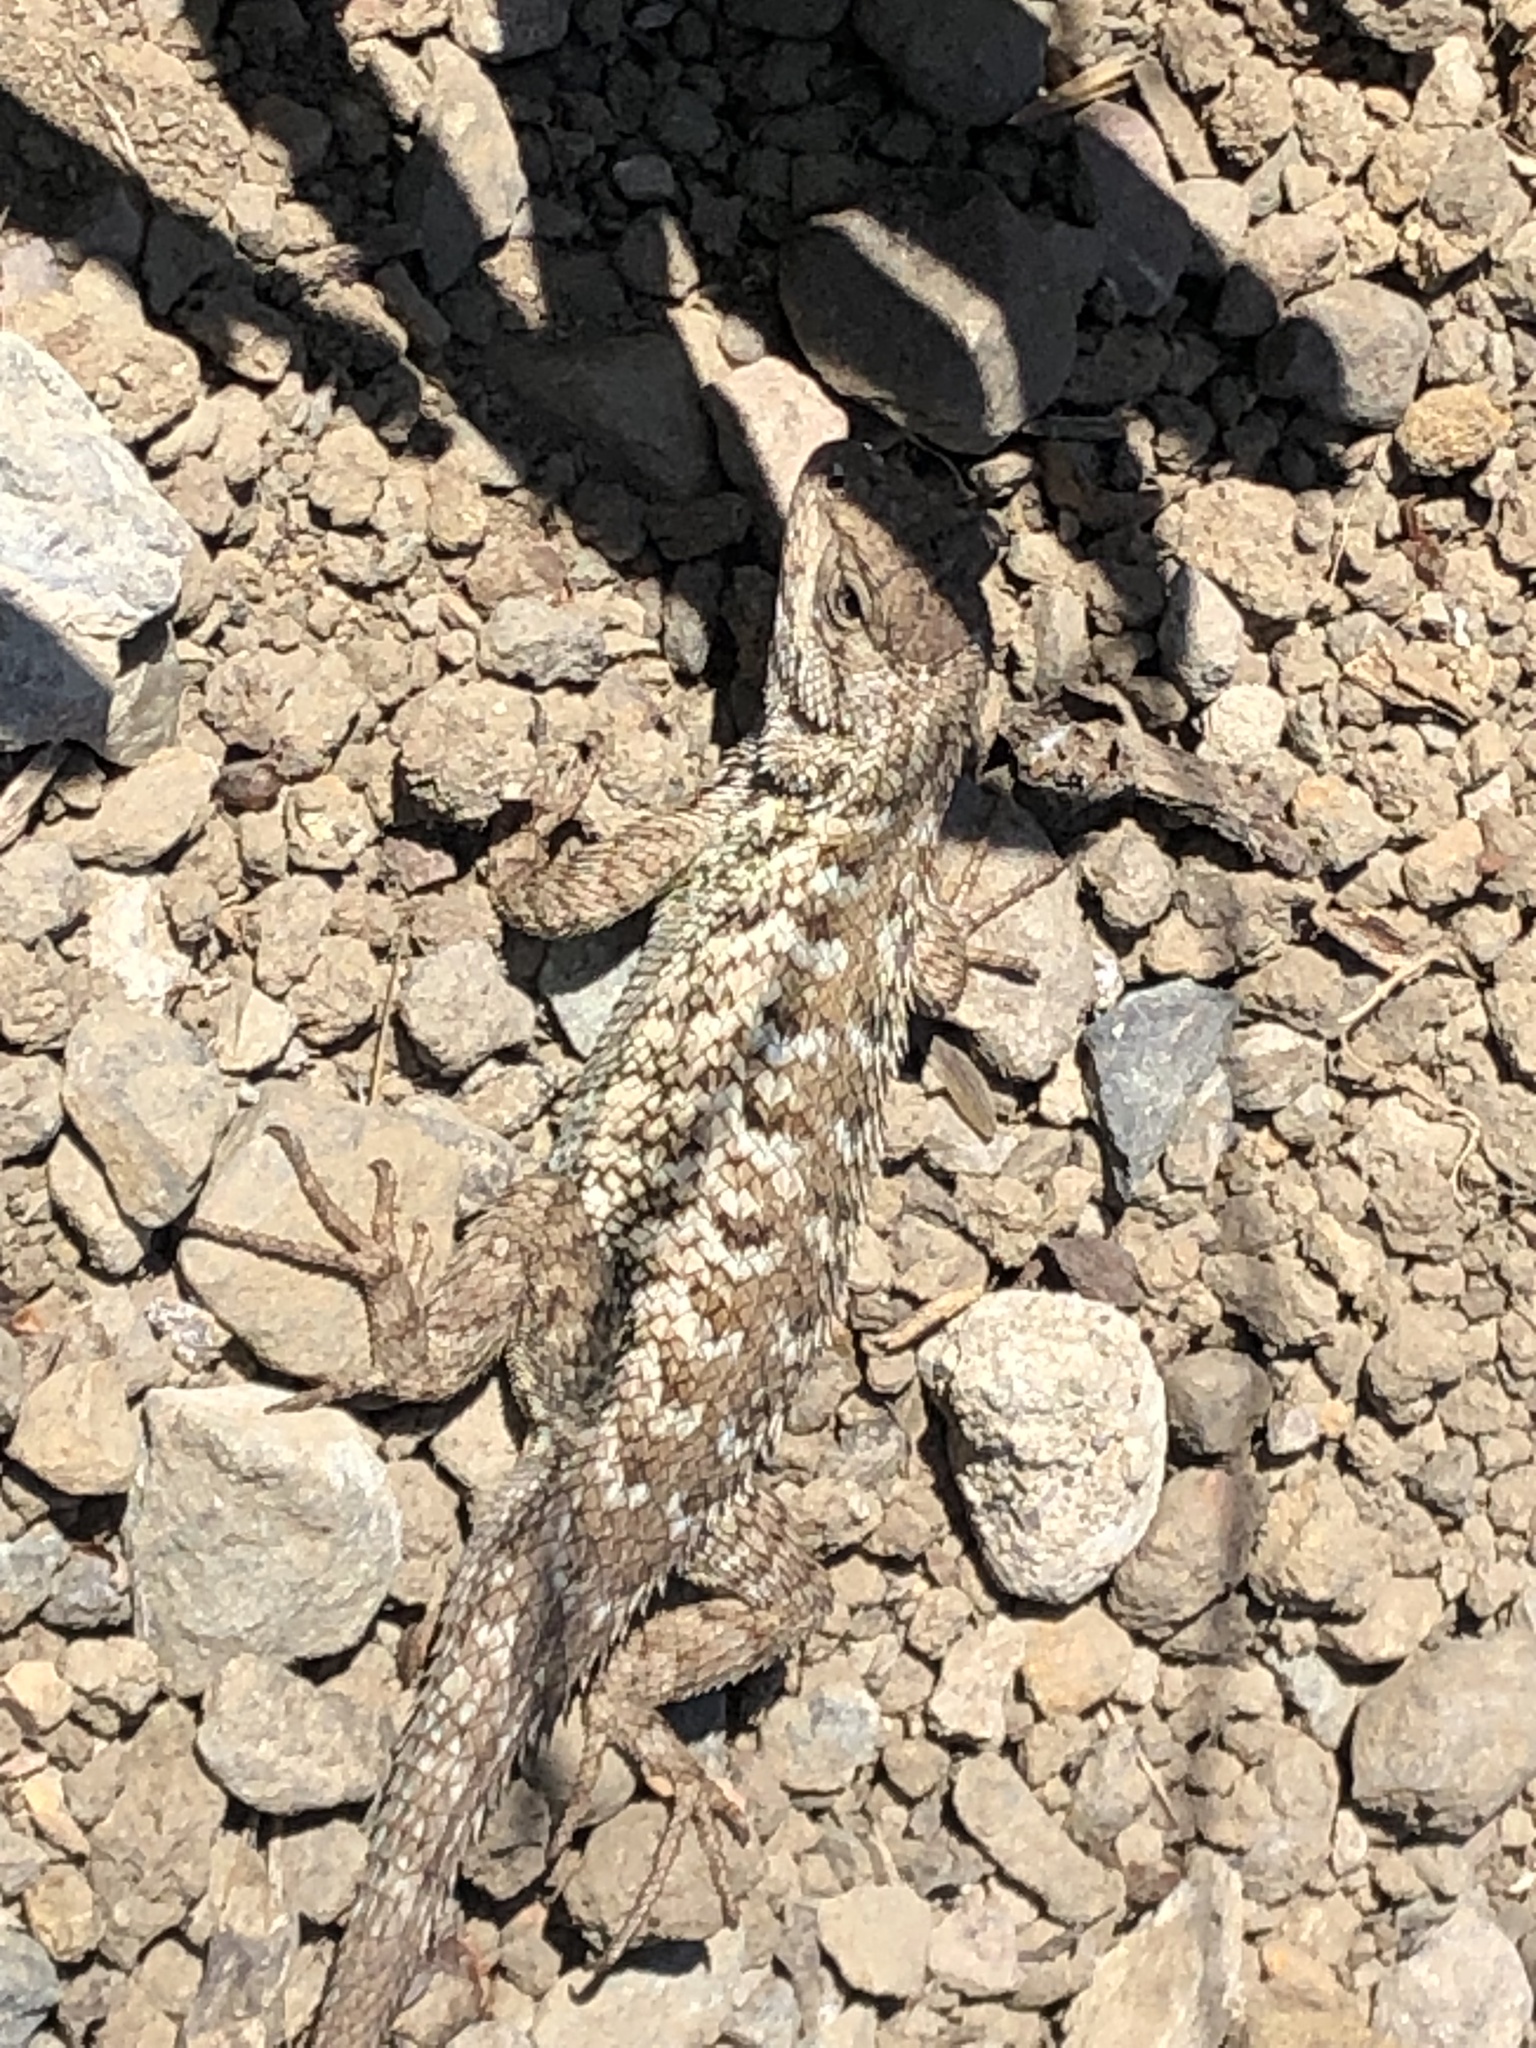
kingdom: Animalia
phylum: Chordata
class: Squamata
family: Phrynosomatidae
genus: Sceloporus
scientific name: Sceloporus occidentalis
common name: Western fence lizard
